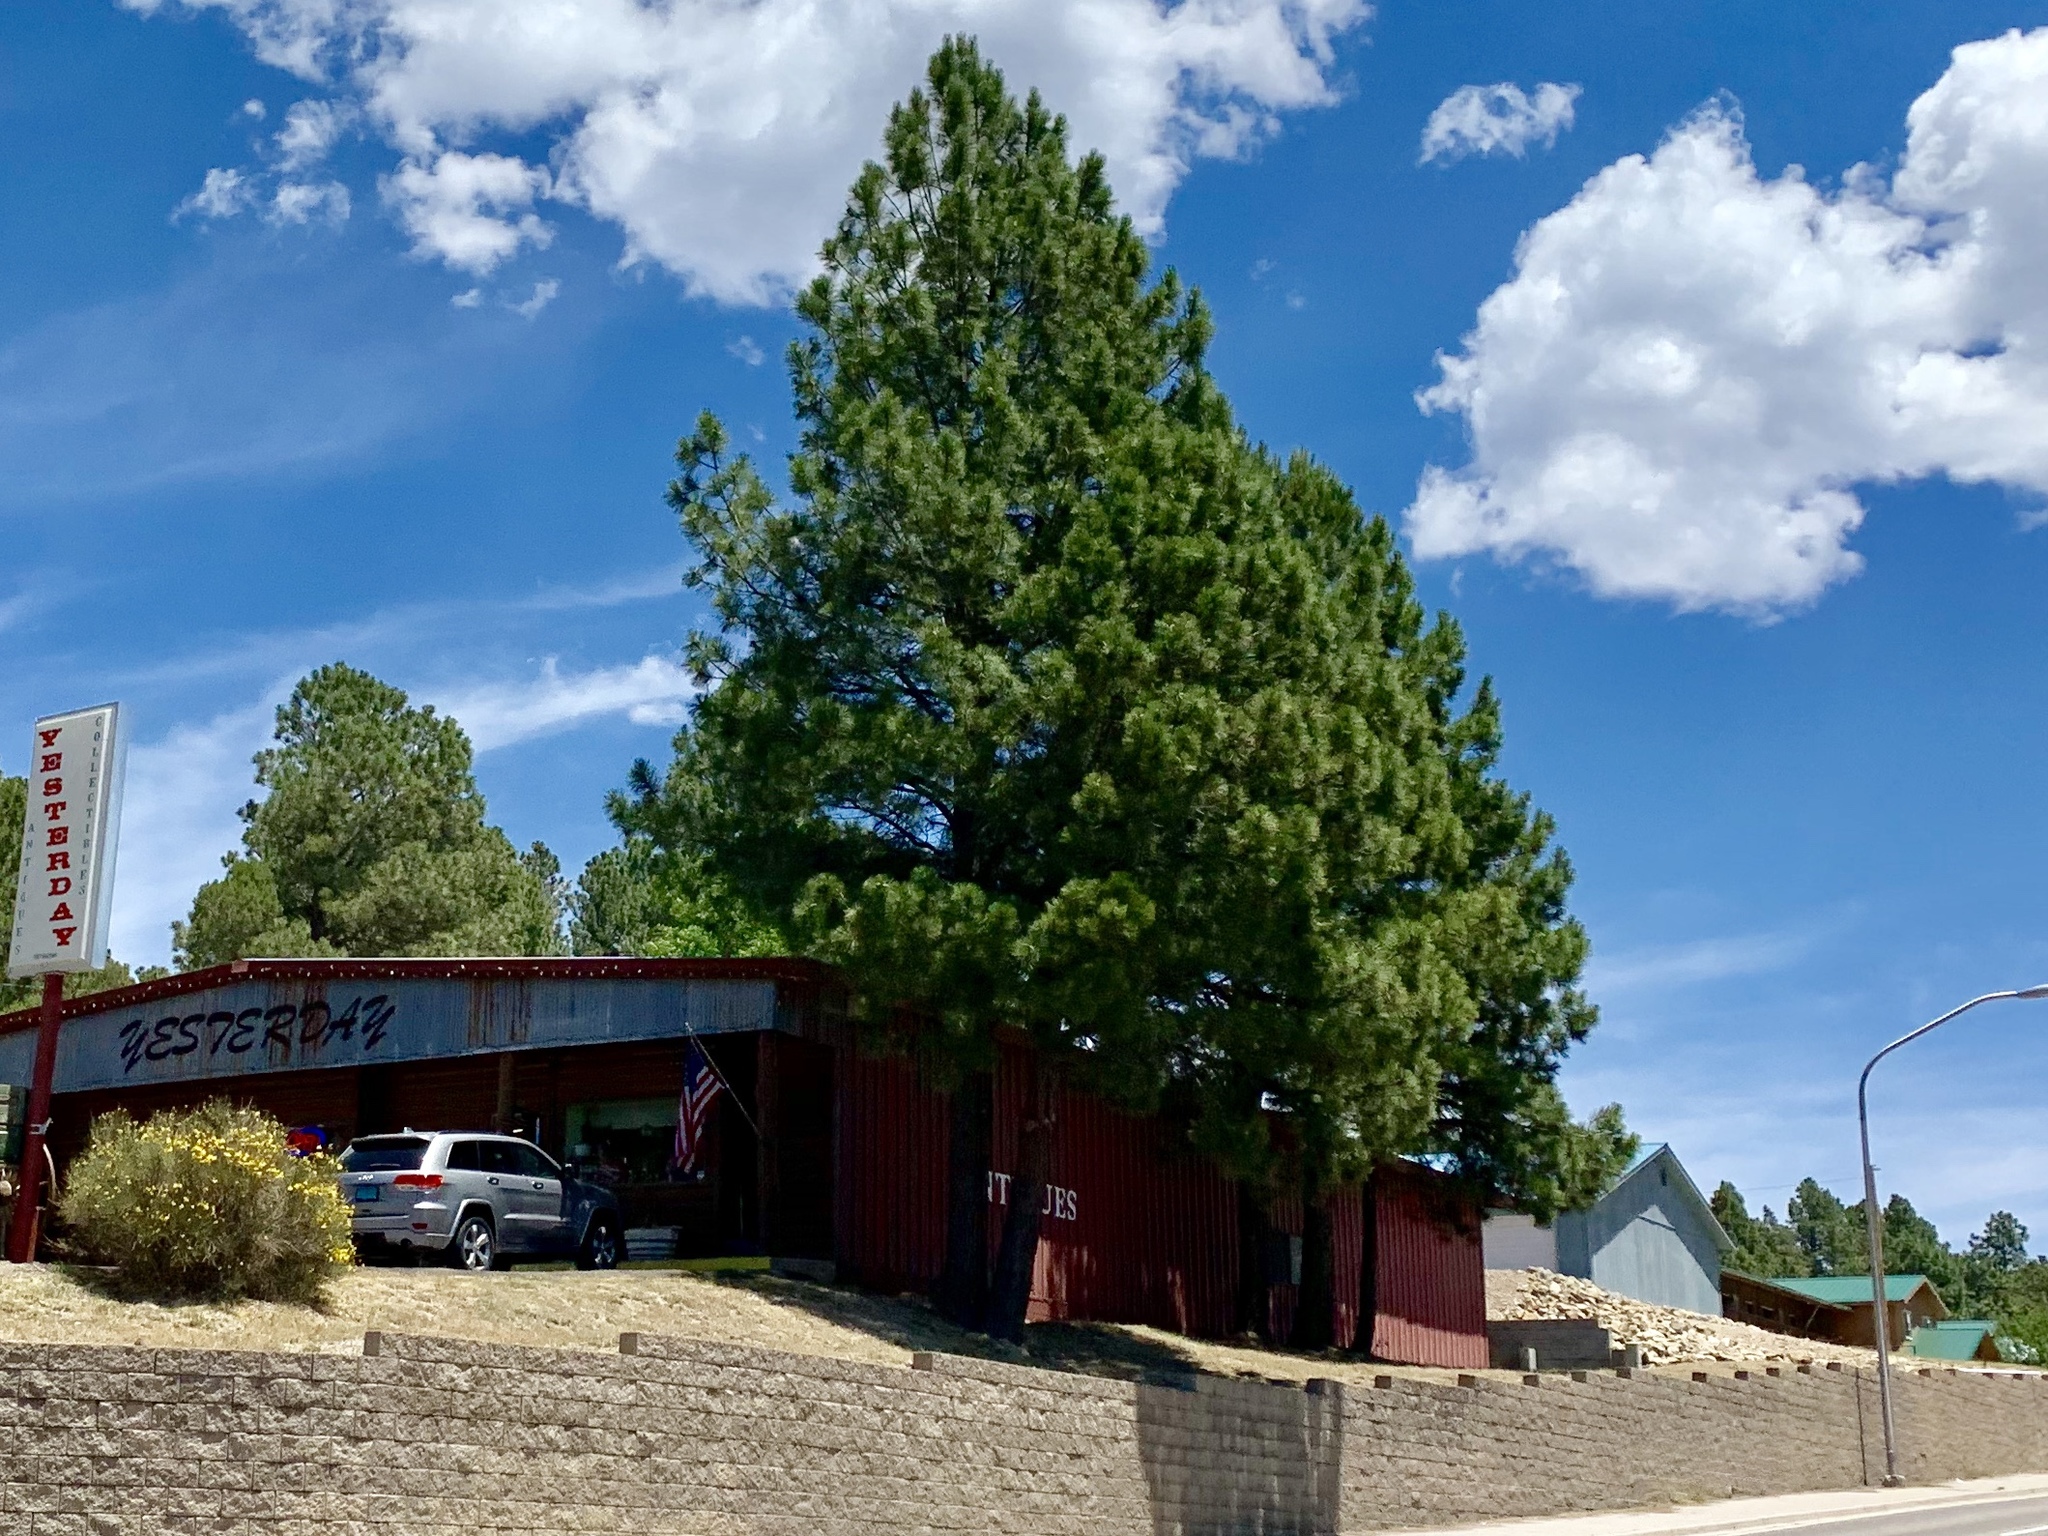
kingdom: Plantae
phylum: Tracheophyta
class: Pinopsida
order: Pinales
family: Pinaceae
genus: Pinus
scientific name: Pinus ponderosa
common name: Western yellow-pine
